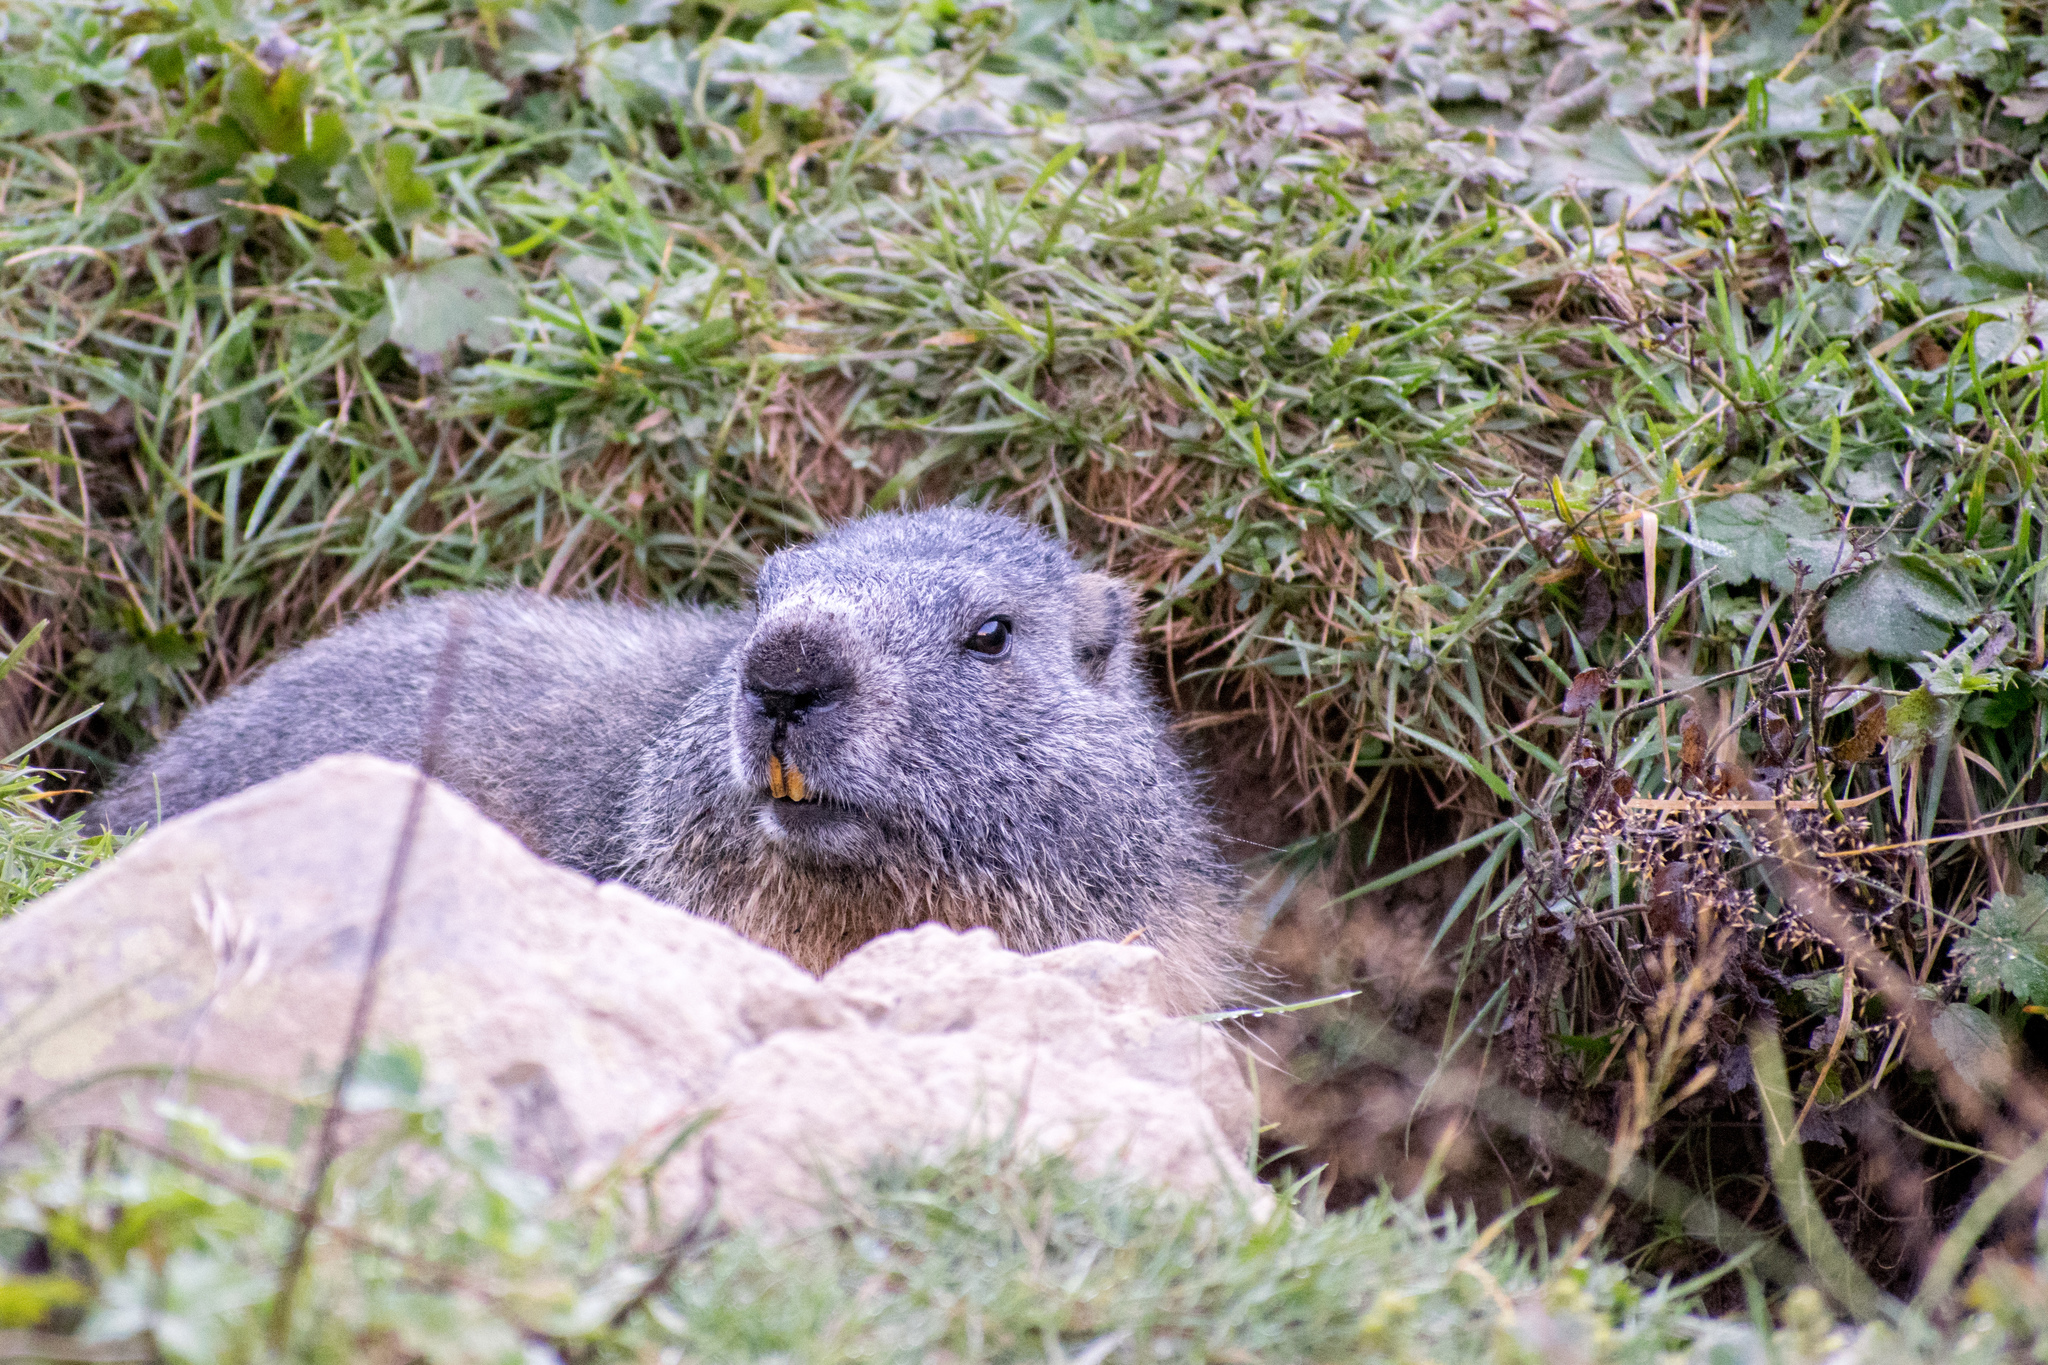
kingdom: Animalia
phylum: Chordata
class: Mammalia
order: Rodentia
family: Sciuridae
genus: Marmota
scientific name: Marmota marmota
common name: Alpine marmot
